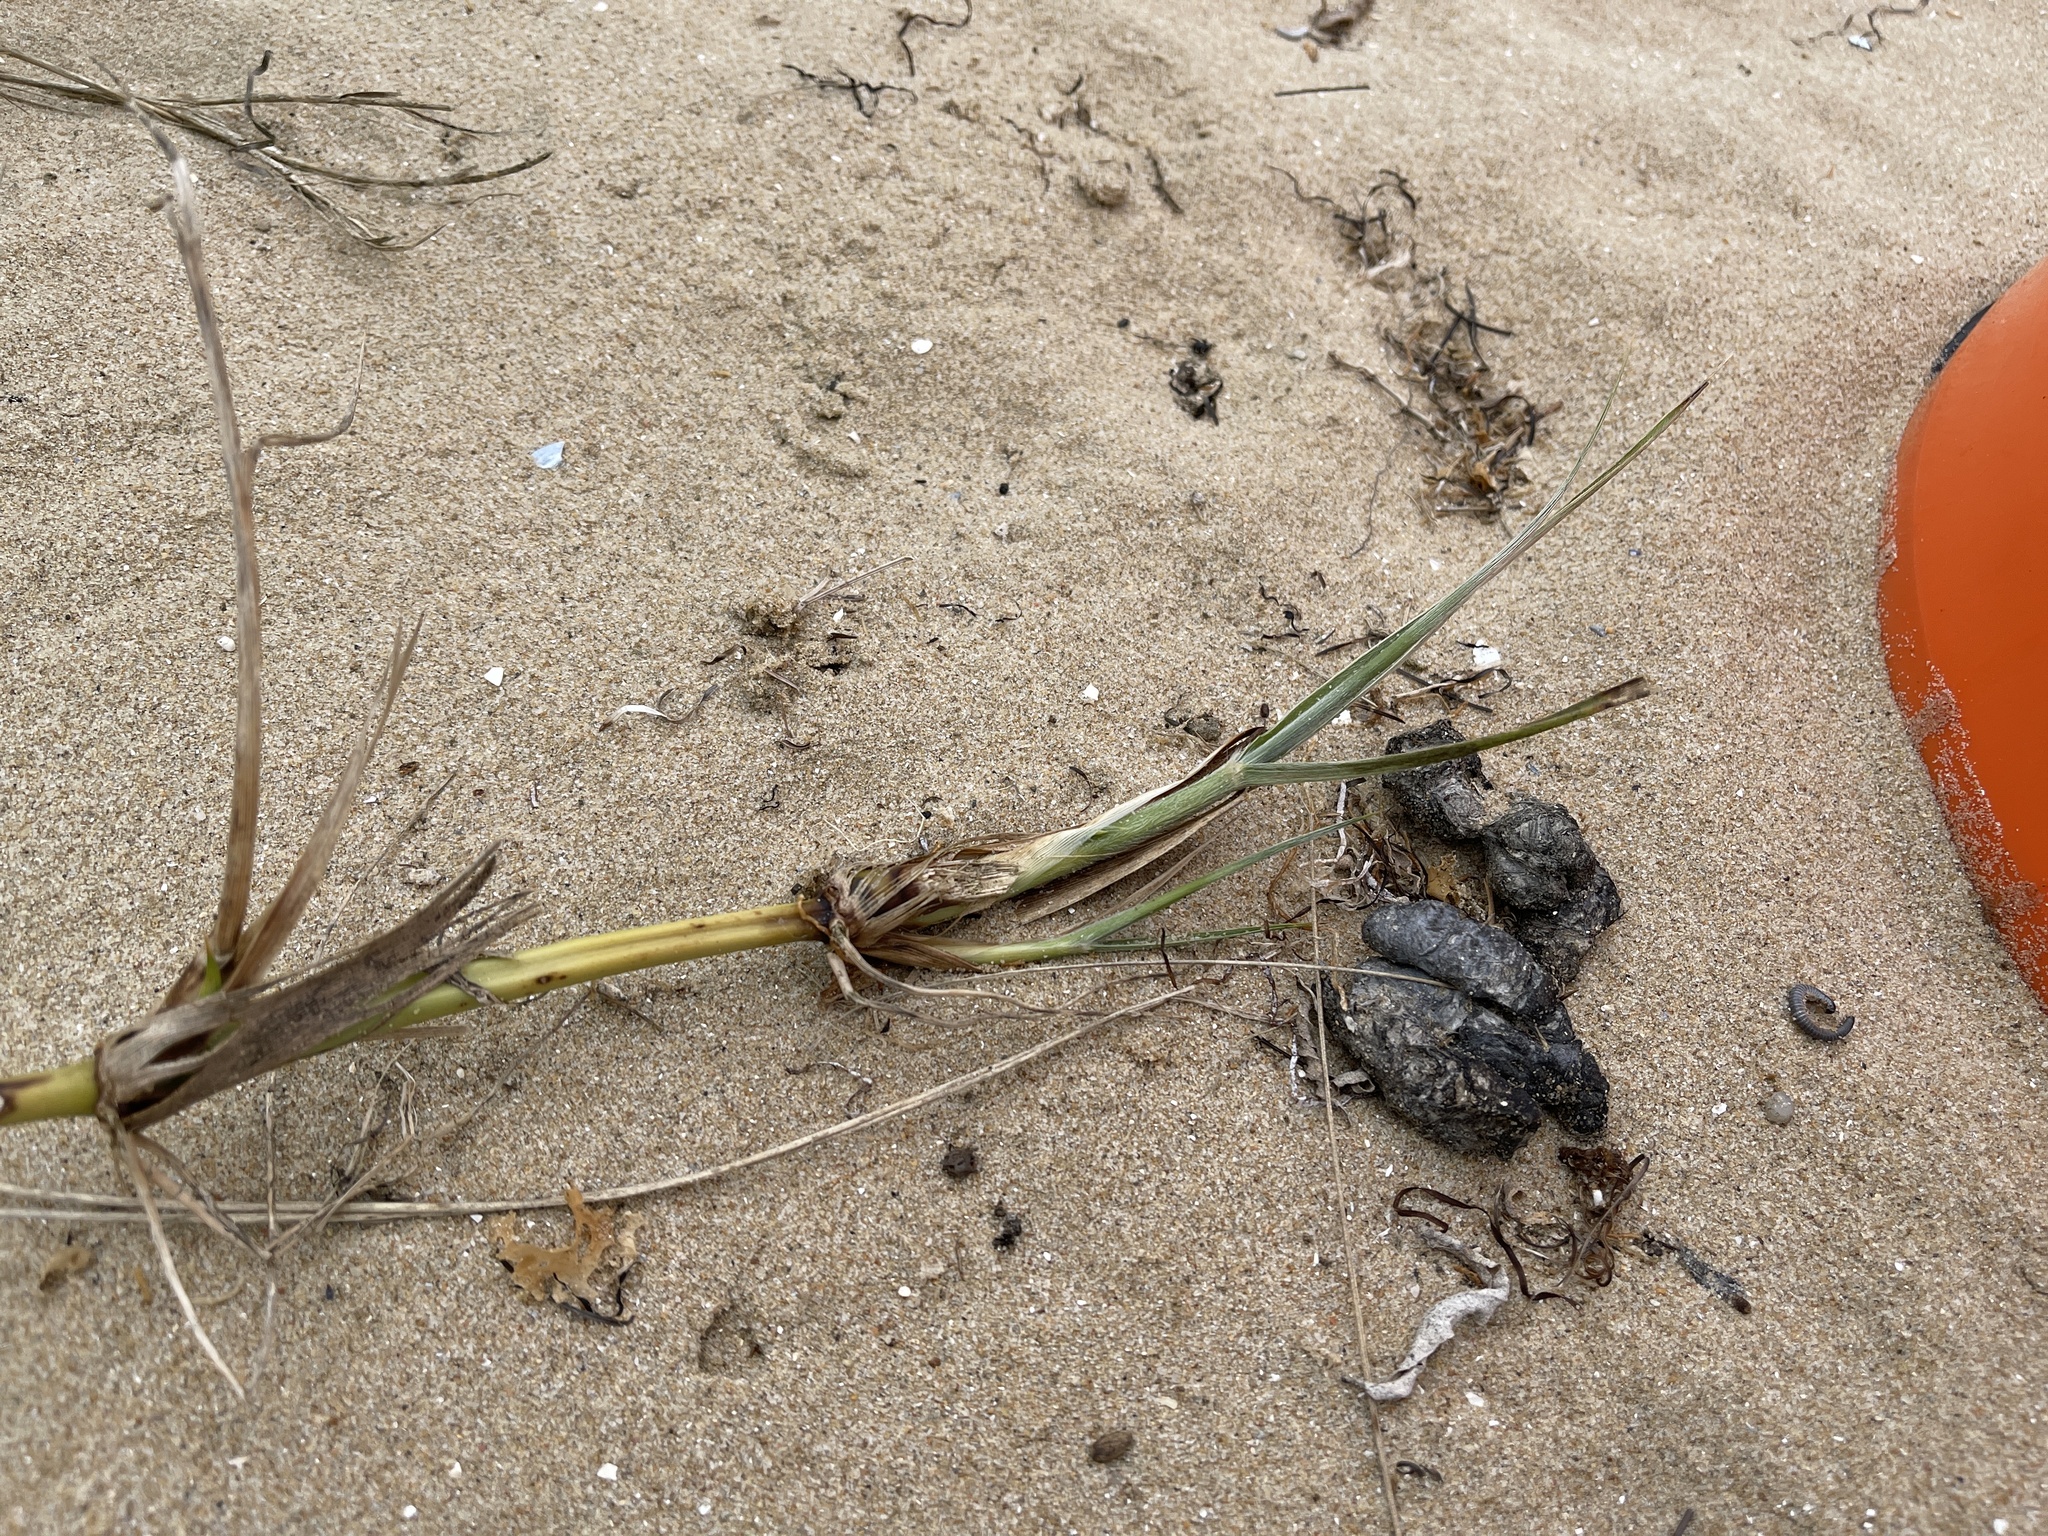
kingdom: Plantae
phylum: Tracheophyta
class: Liliopsida
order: Poales
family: Poaceae
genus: Spinifex
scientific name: Spinifex sericeus
